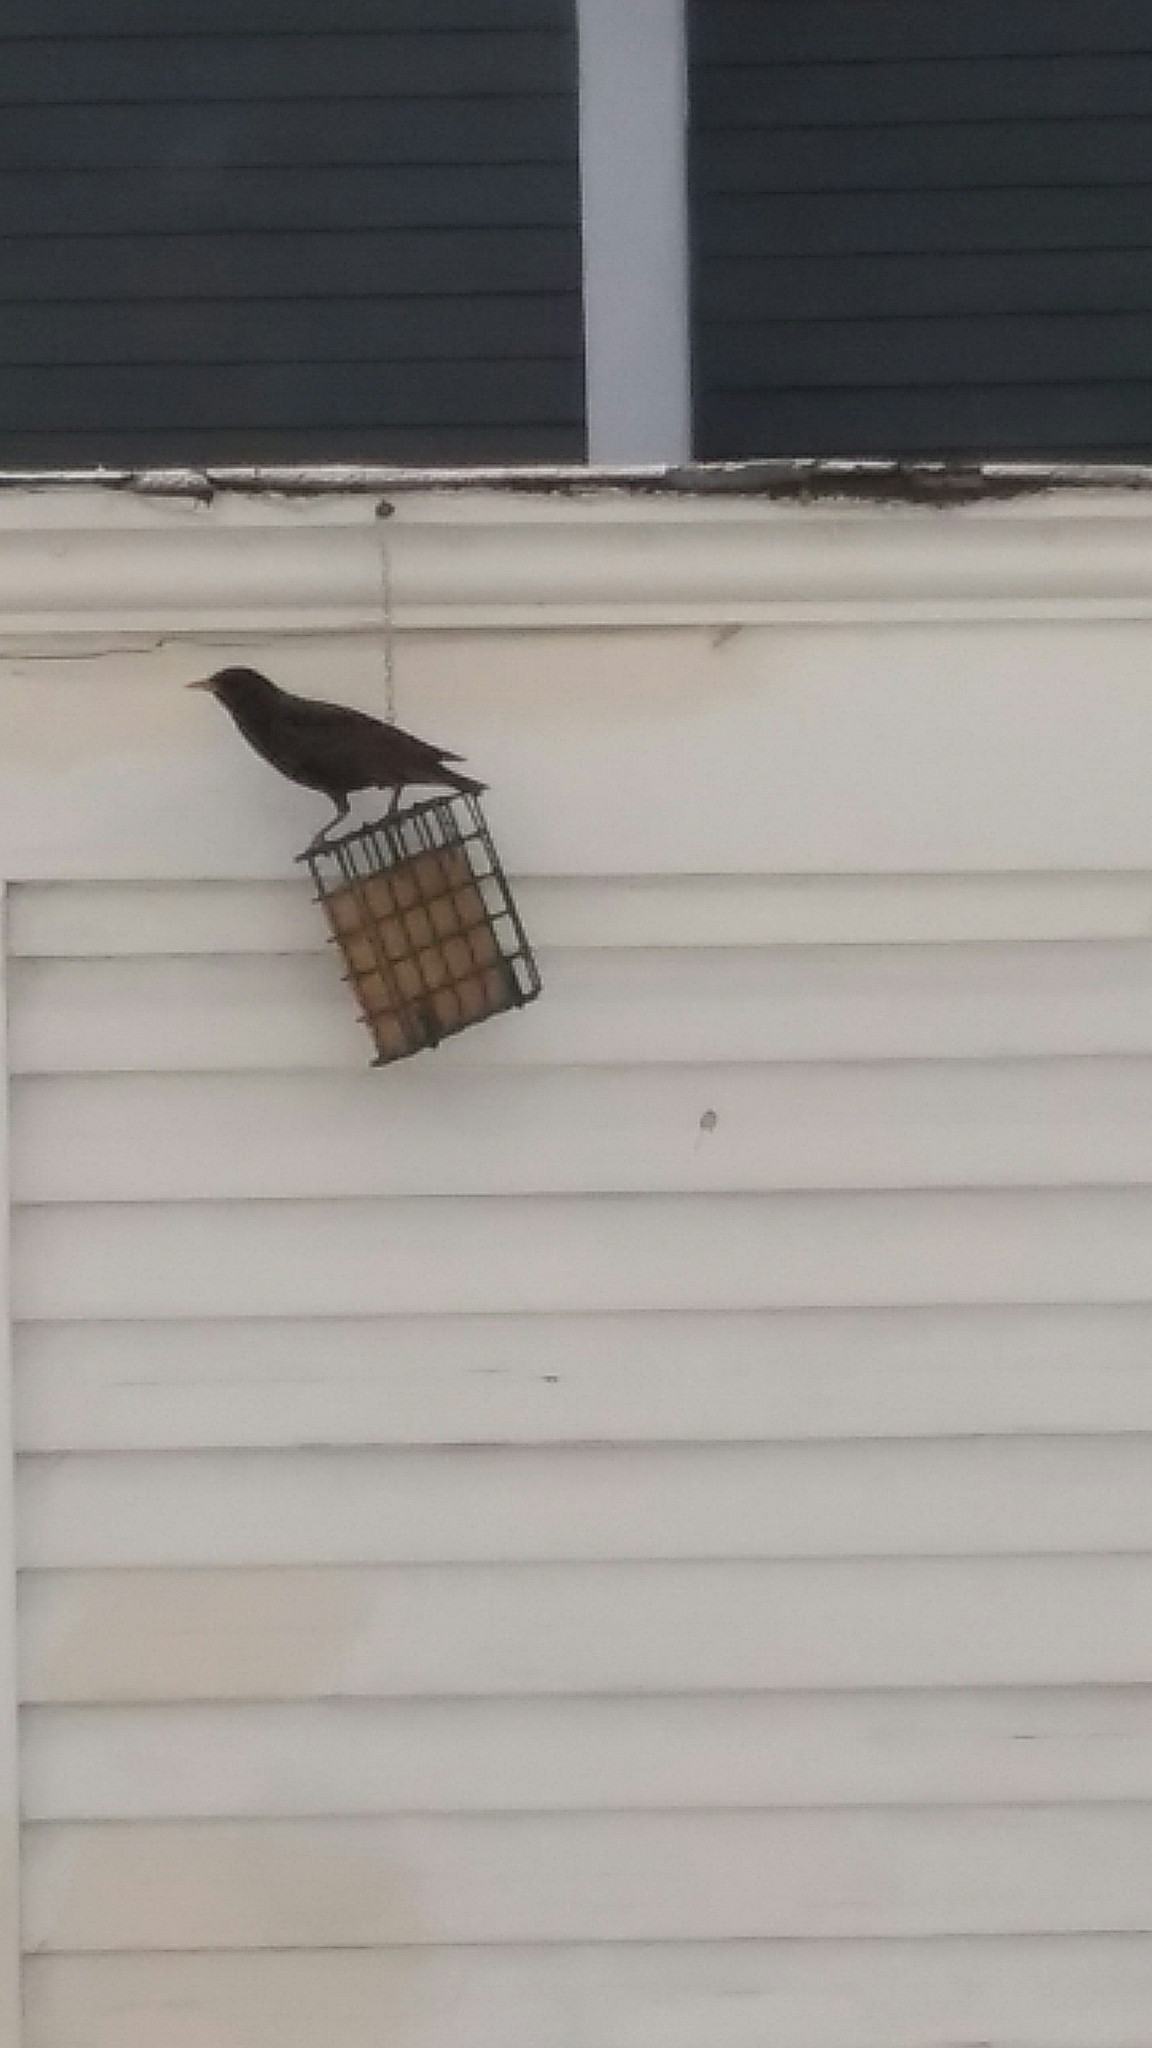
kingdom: Animalia
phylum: Chordata
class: Aves
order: Passeriformes
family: Sturnidae
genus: Sturnus
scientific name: Sturnus vulgaris
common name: Common starling
